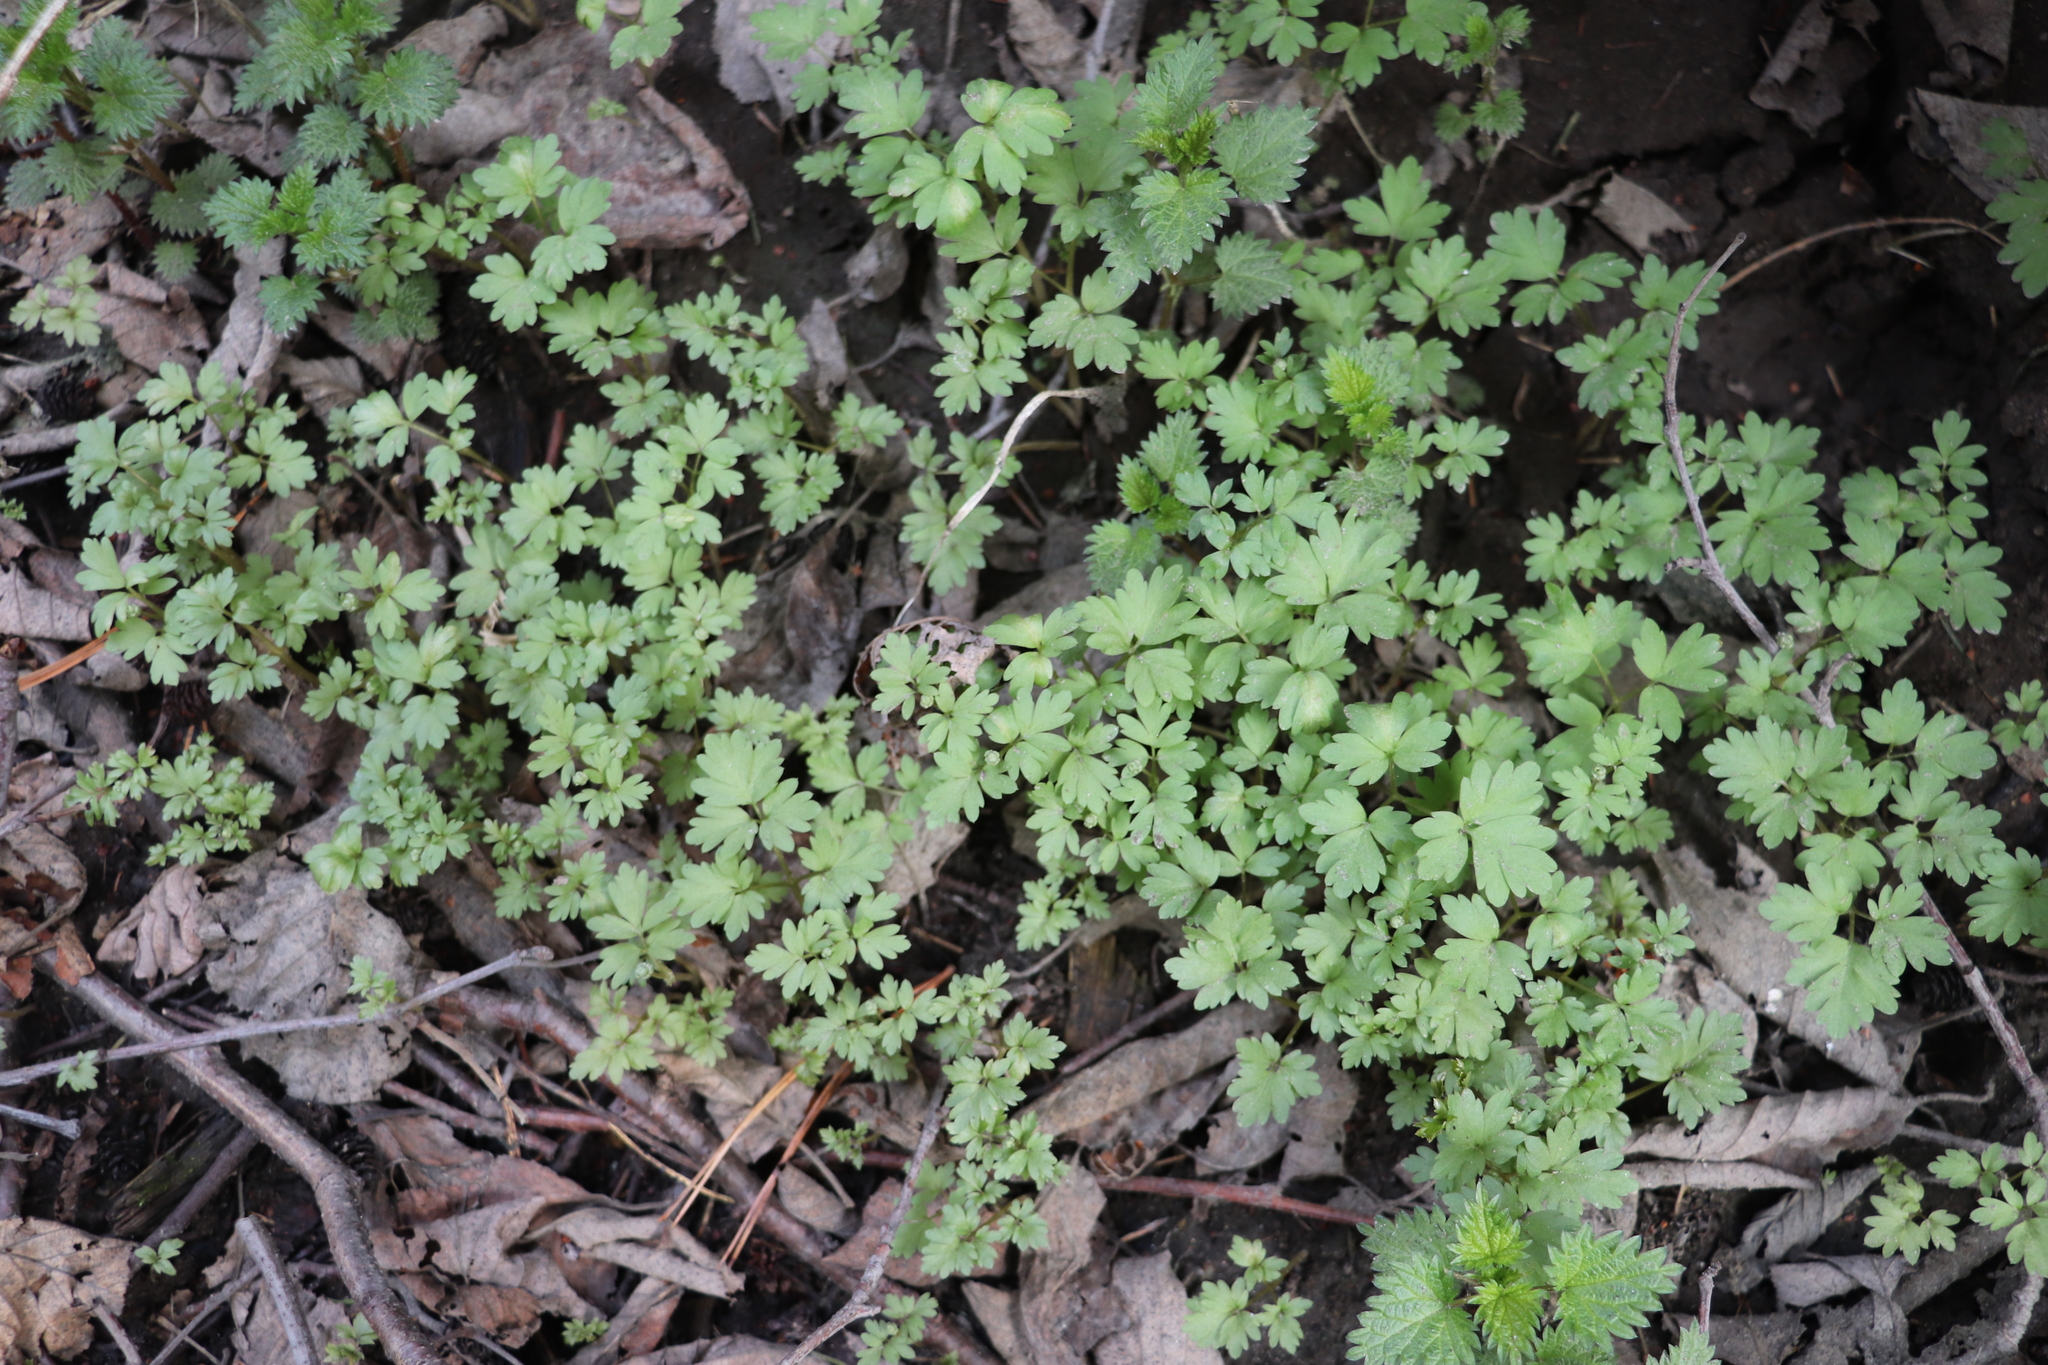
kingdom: Plantae
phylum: Tracheophyta
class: Magnoliopsida
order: Dipsacales
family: Viburnaceae
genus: Adoxa
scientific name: Adoxa moschatellina
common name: Moschatel
